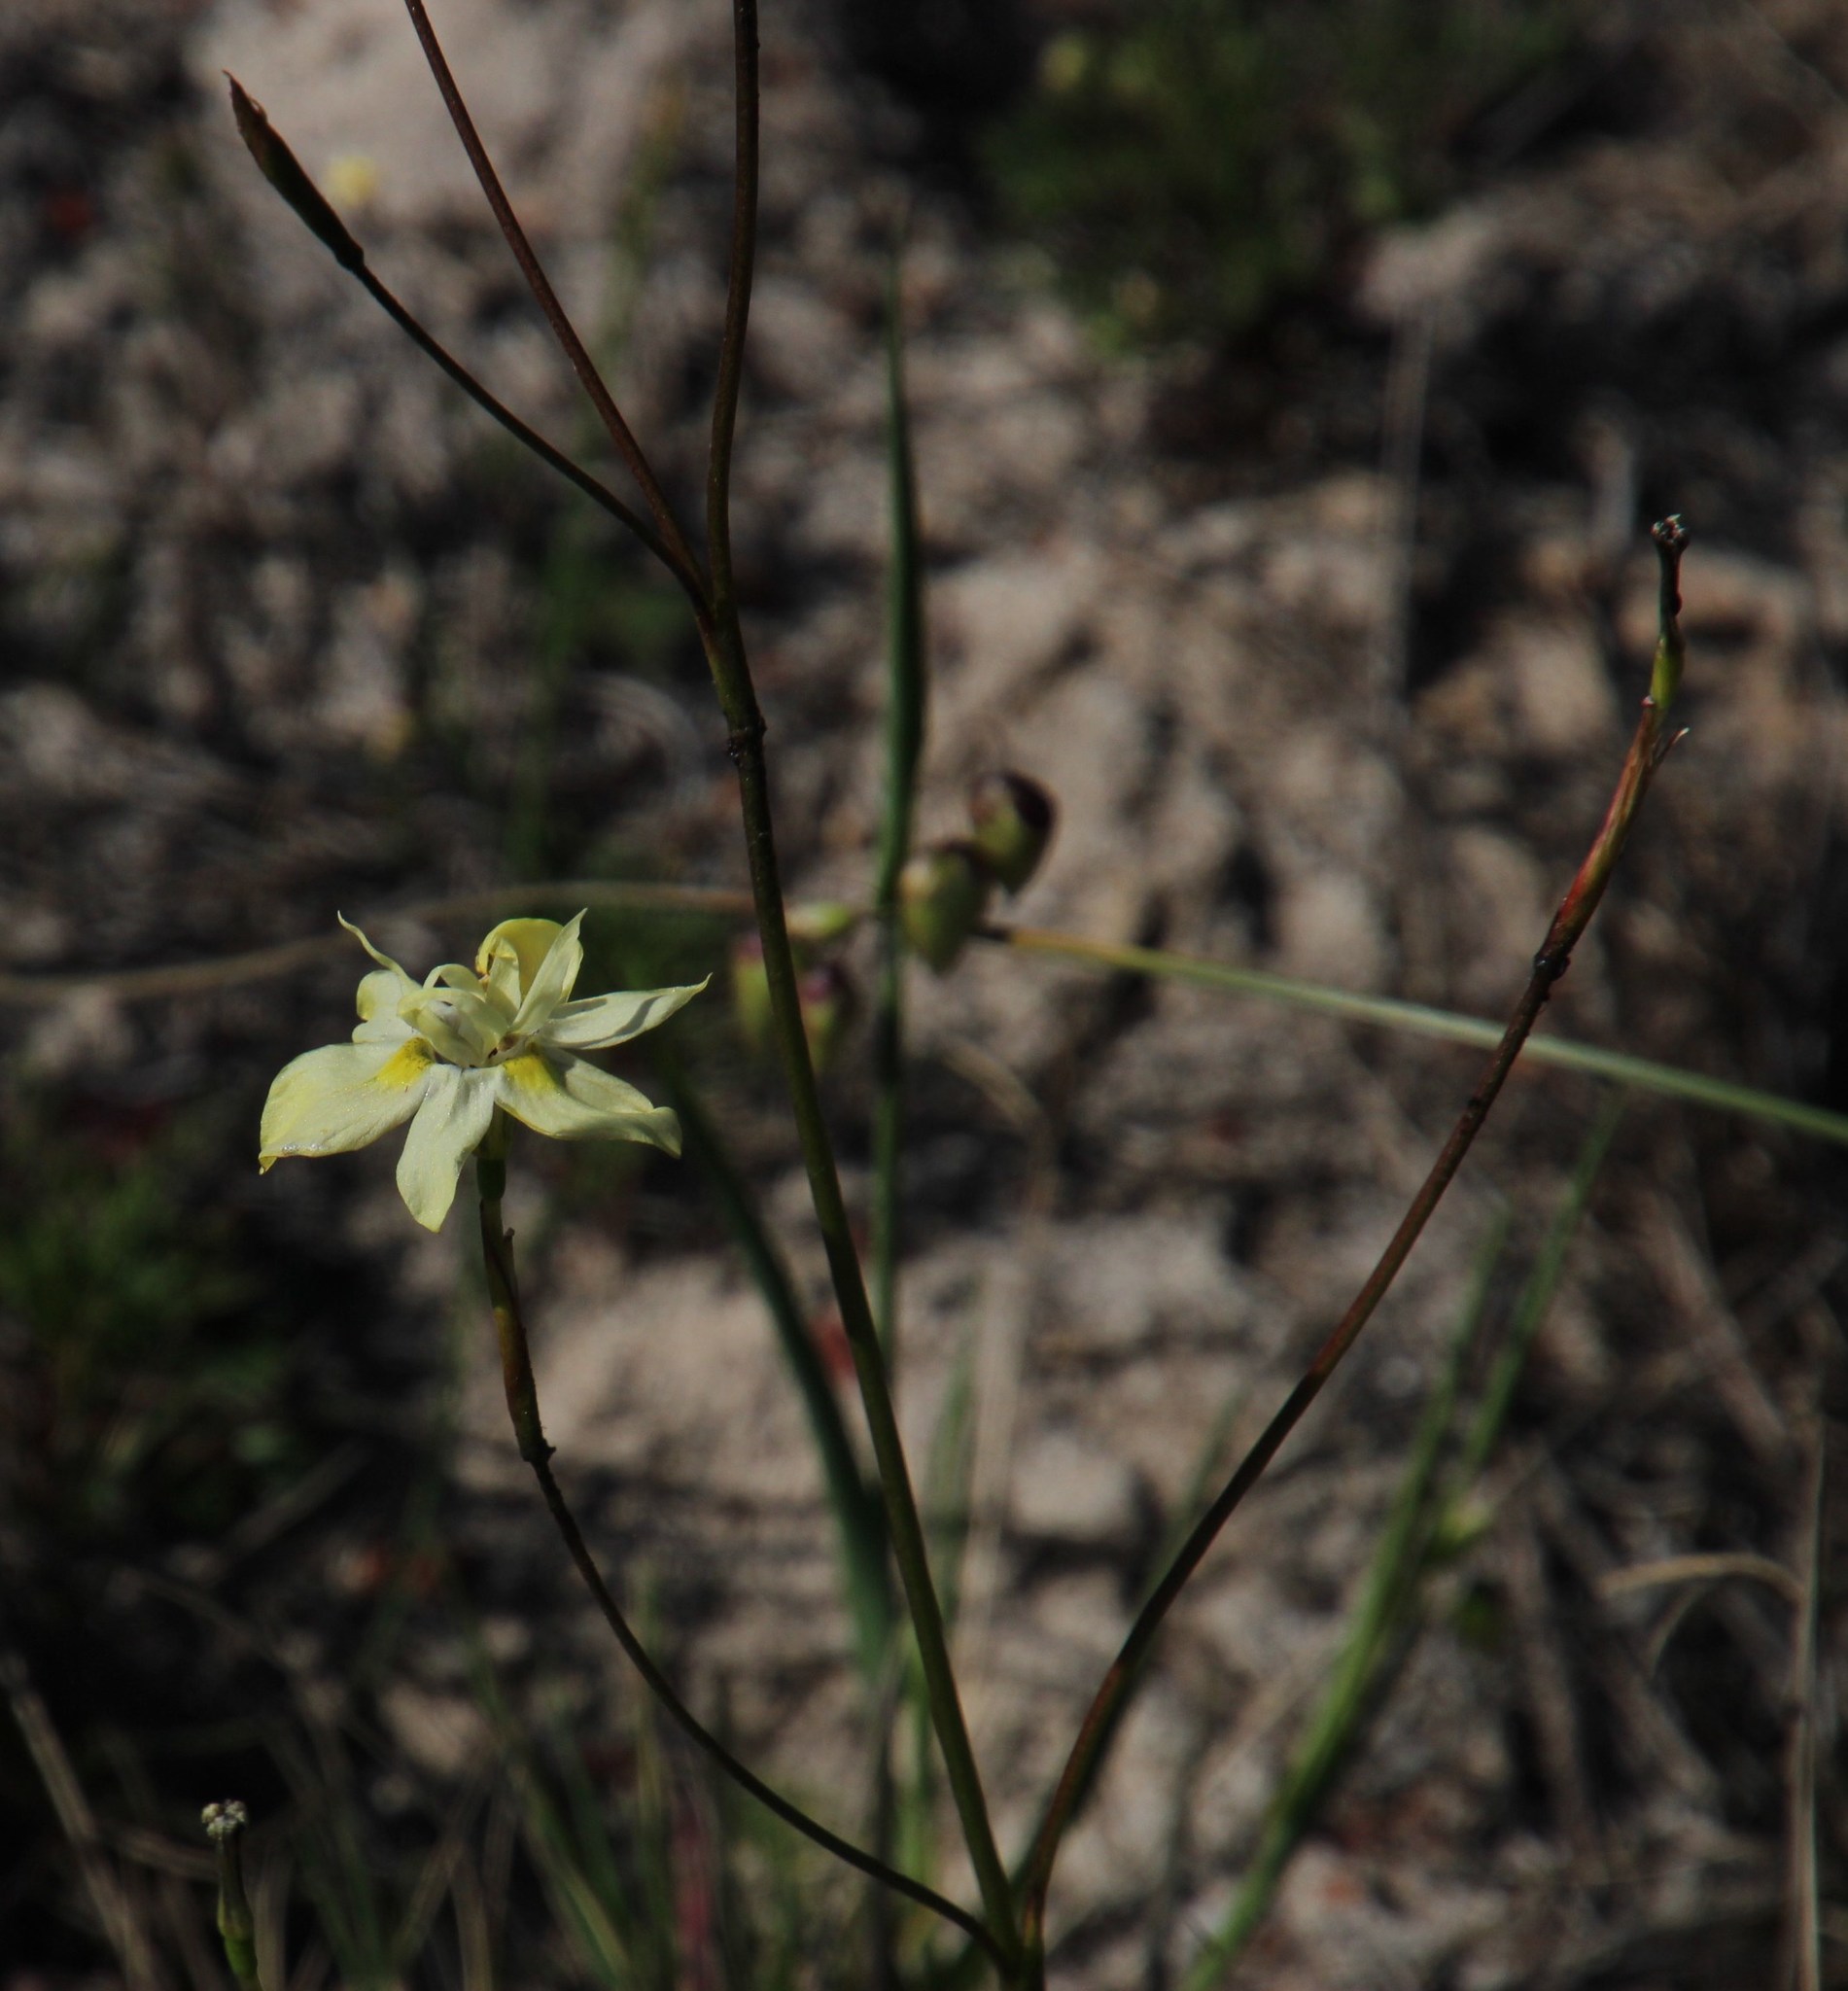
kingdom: Plantae
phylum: Tracheophyta
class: Liliopsida
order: Asparagales
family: Iridaceae
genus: Moraea
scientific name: Moraea gawleri
